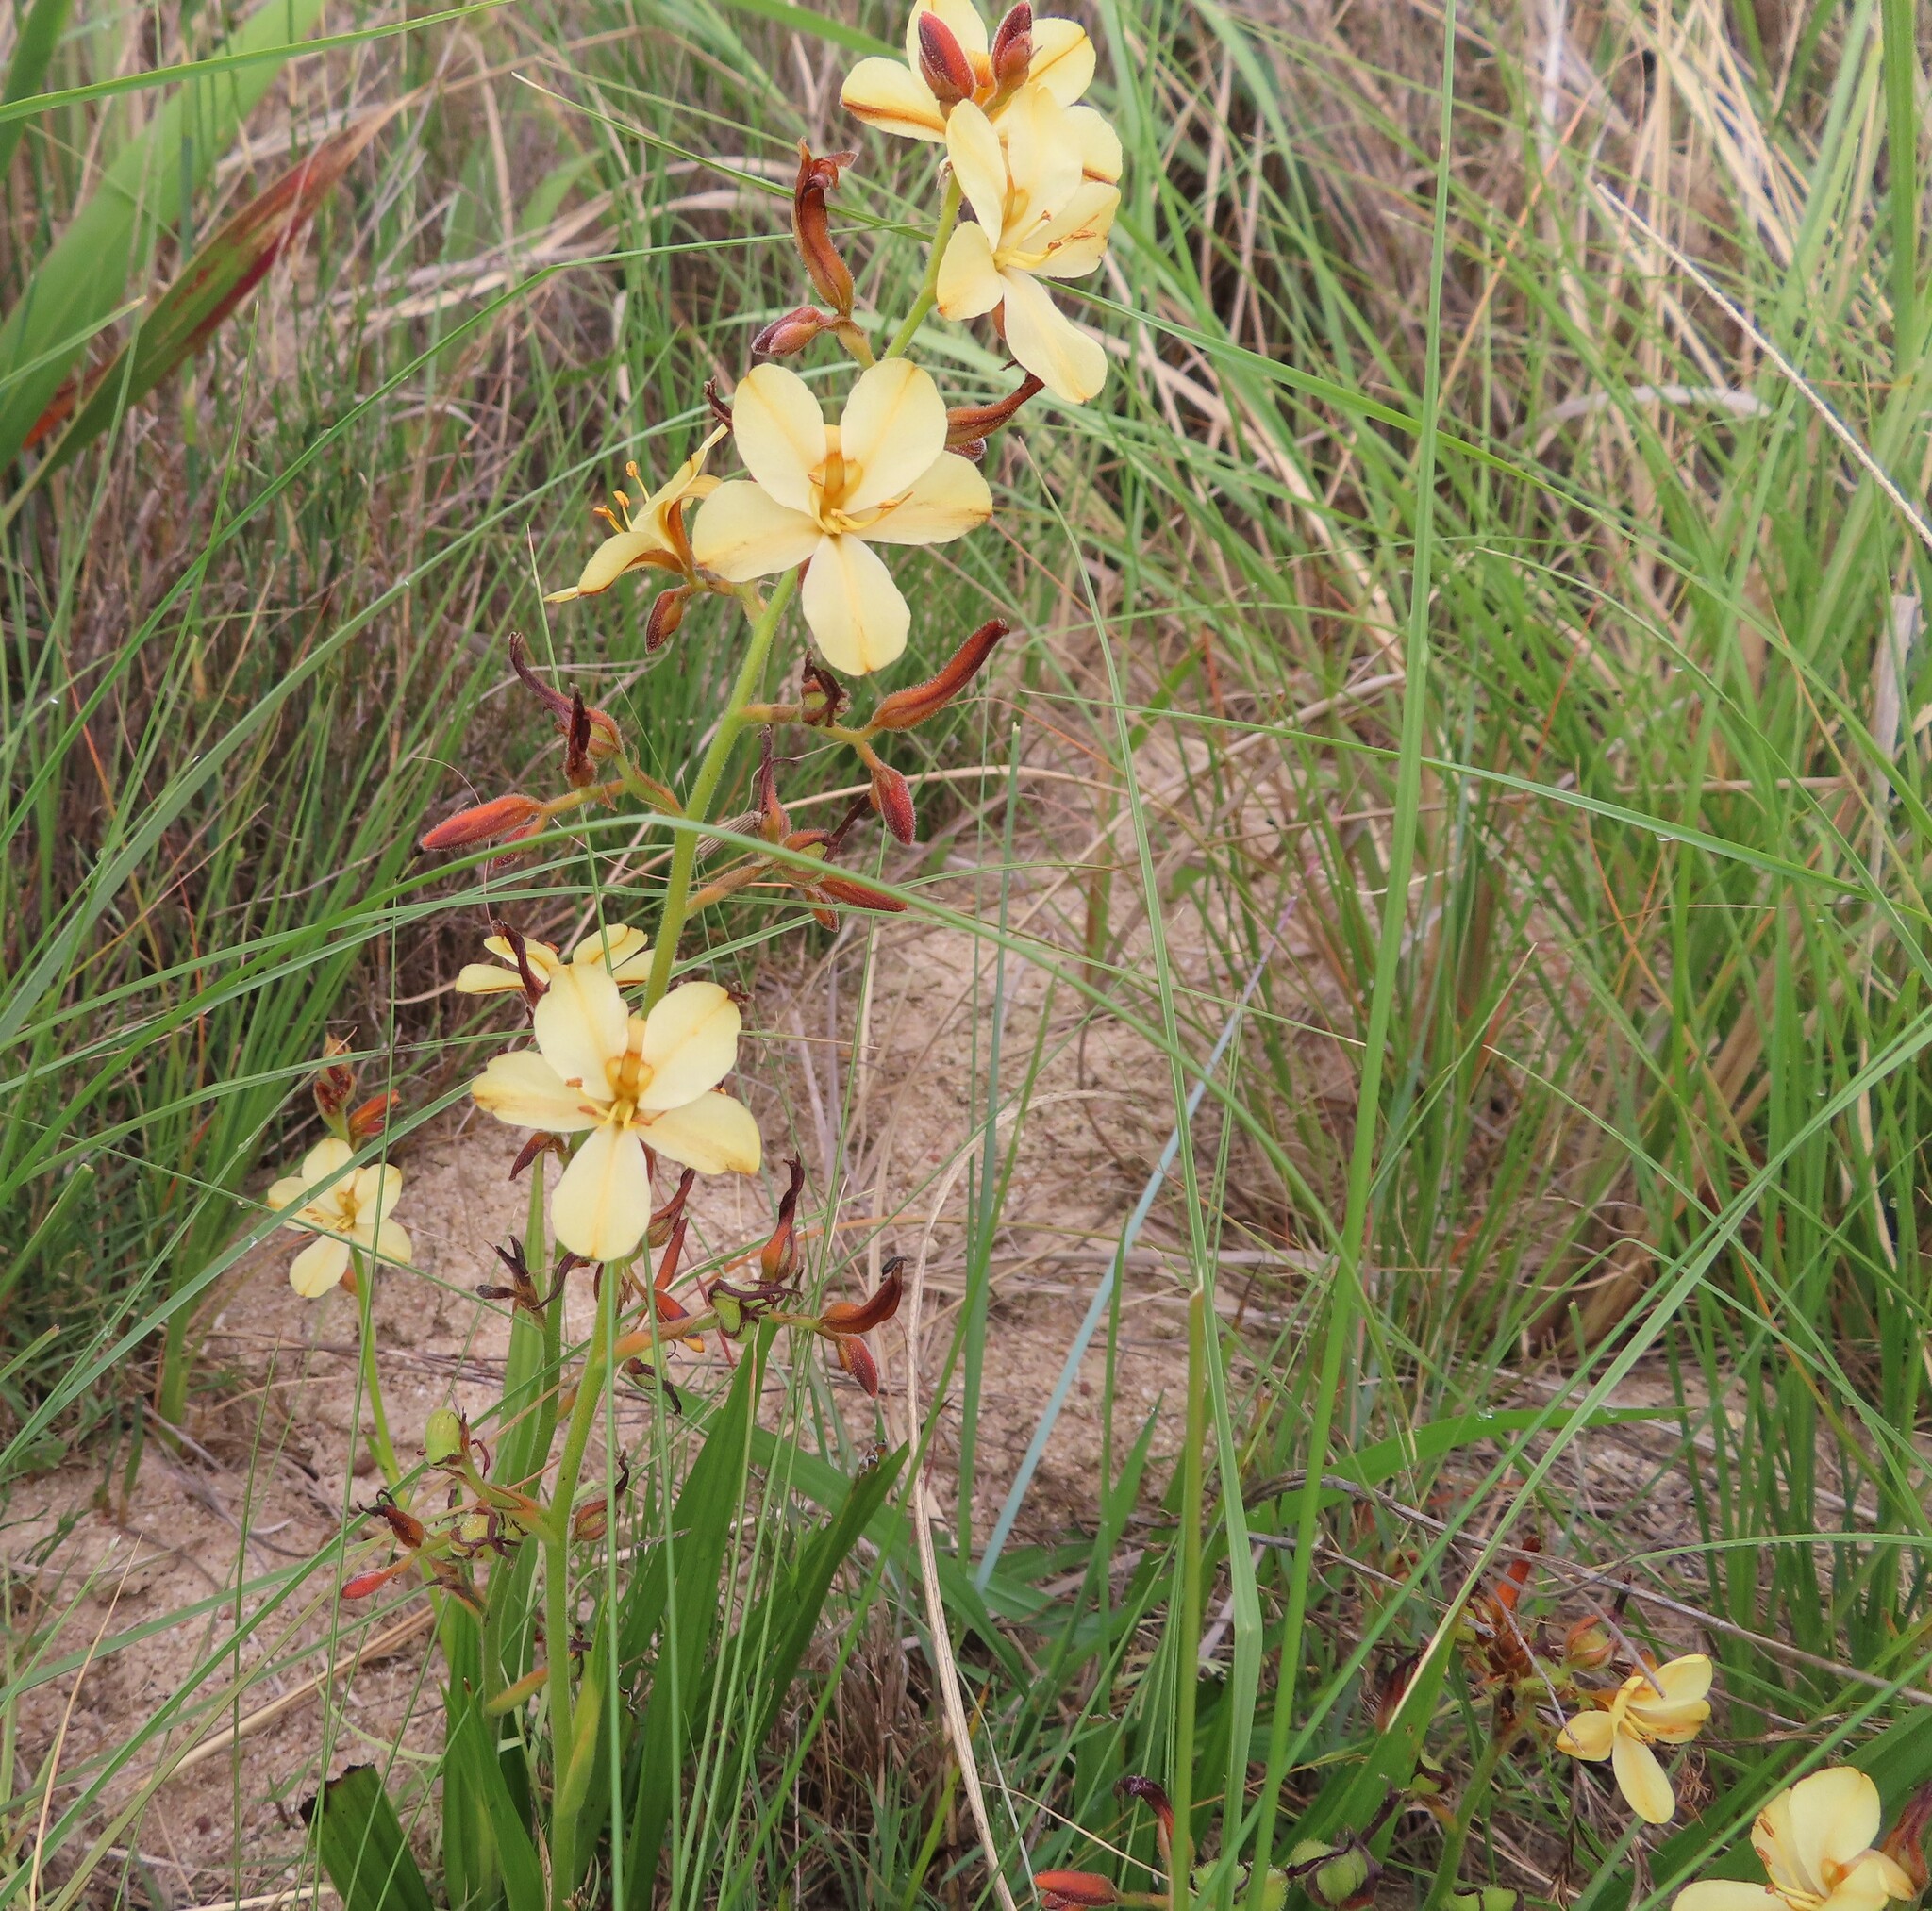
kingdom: Plantae
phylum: Tracheophyta
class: Liliopsida
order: Commelinales
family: Haemodoraceae
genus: Wachendorfia
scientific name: Wachendorfia paniculata
